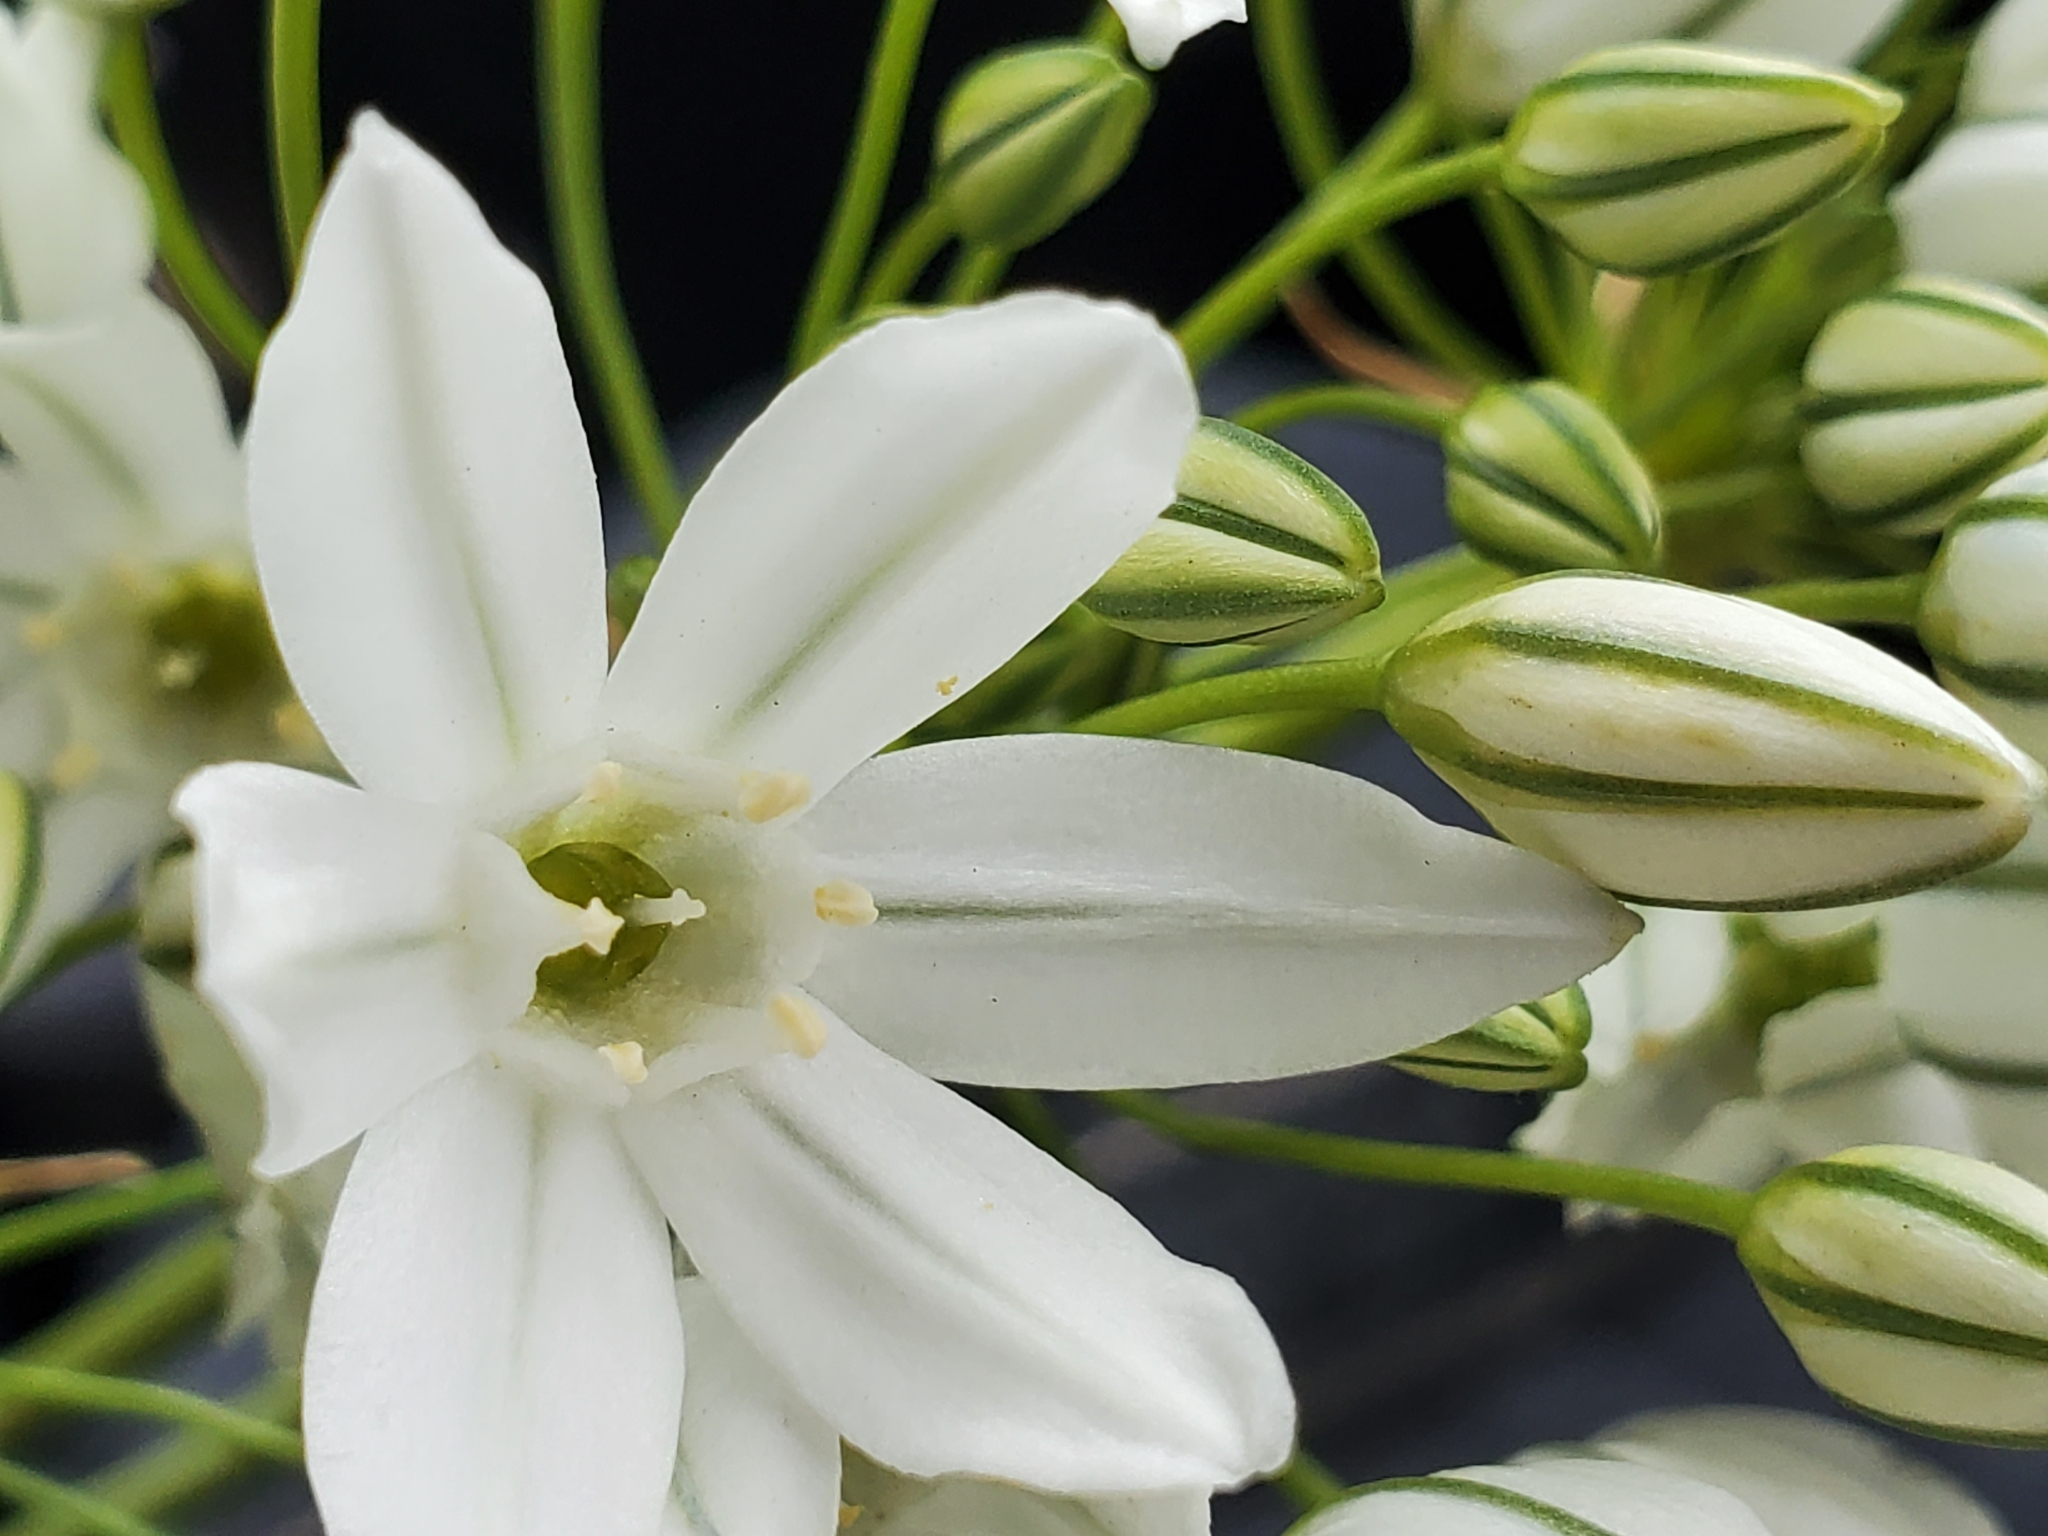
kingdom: Plantae
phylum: Tracheophyta
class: Liliopsida
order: Asparagales
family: Asparagaceae
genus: Triteleia
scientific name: Triteleia hyacinthina
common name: White brodiaea
